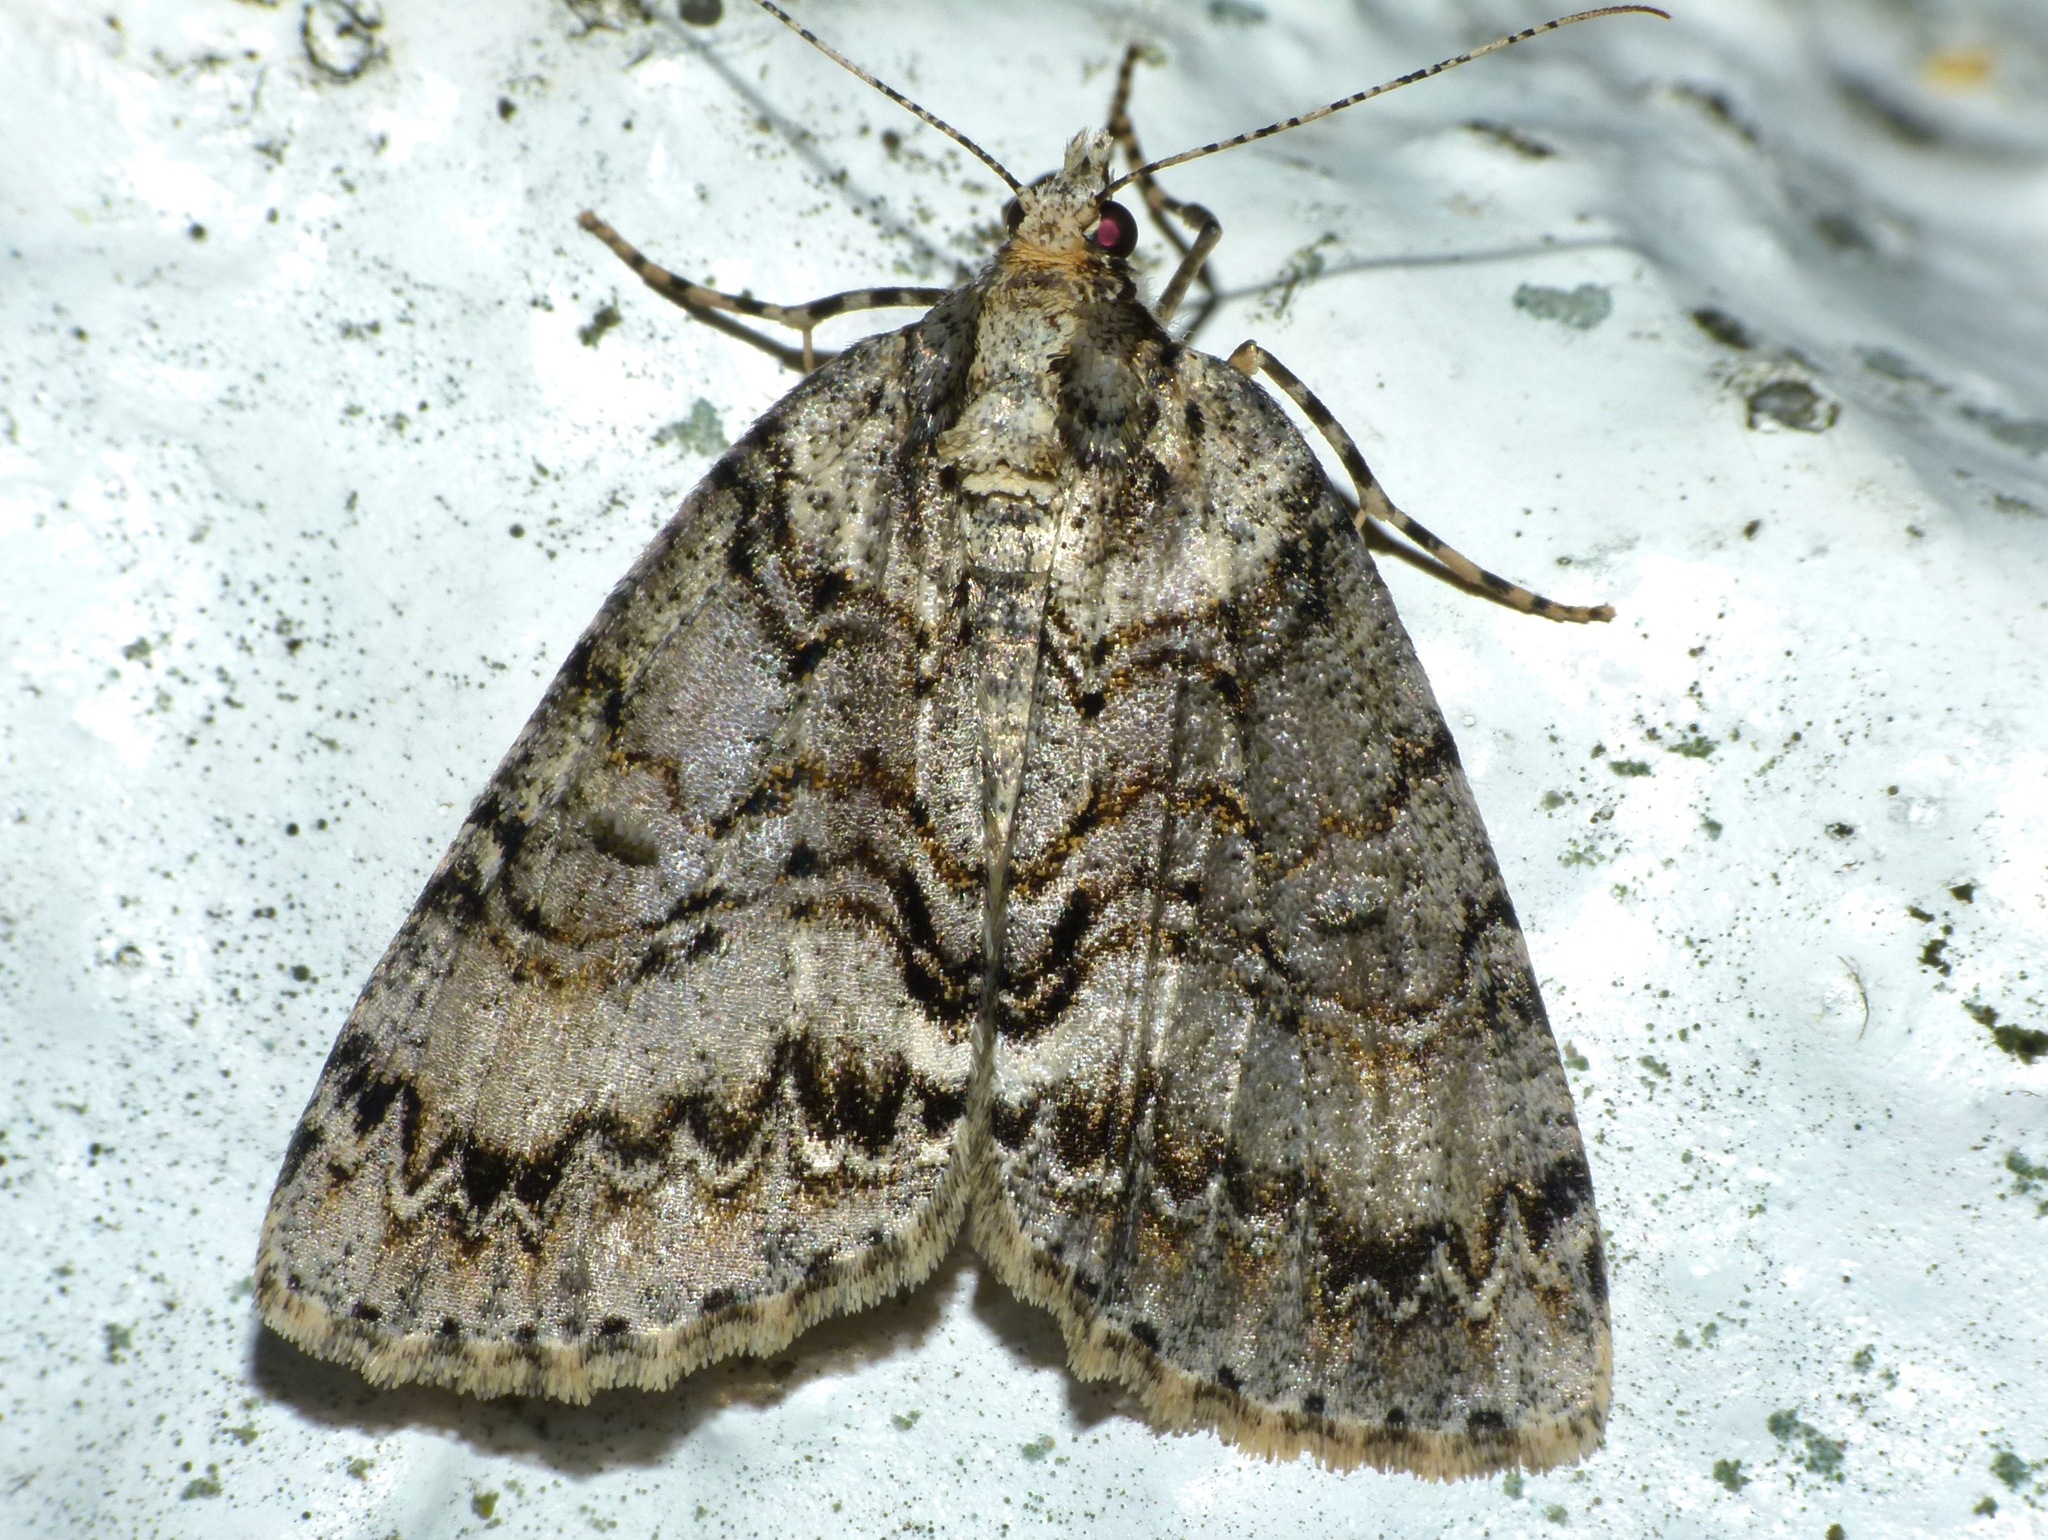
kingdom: Animalia
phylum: Arthropoda
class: Insecta
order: Lepidoptera
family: Geometridae
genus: Pseudocoremia
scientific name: Pseudocoremia suavis
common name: Common forest looper
